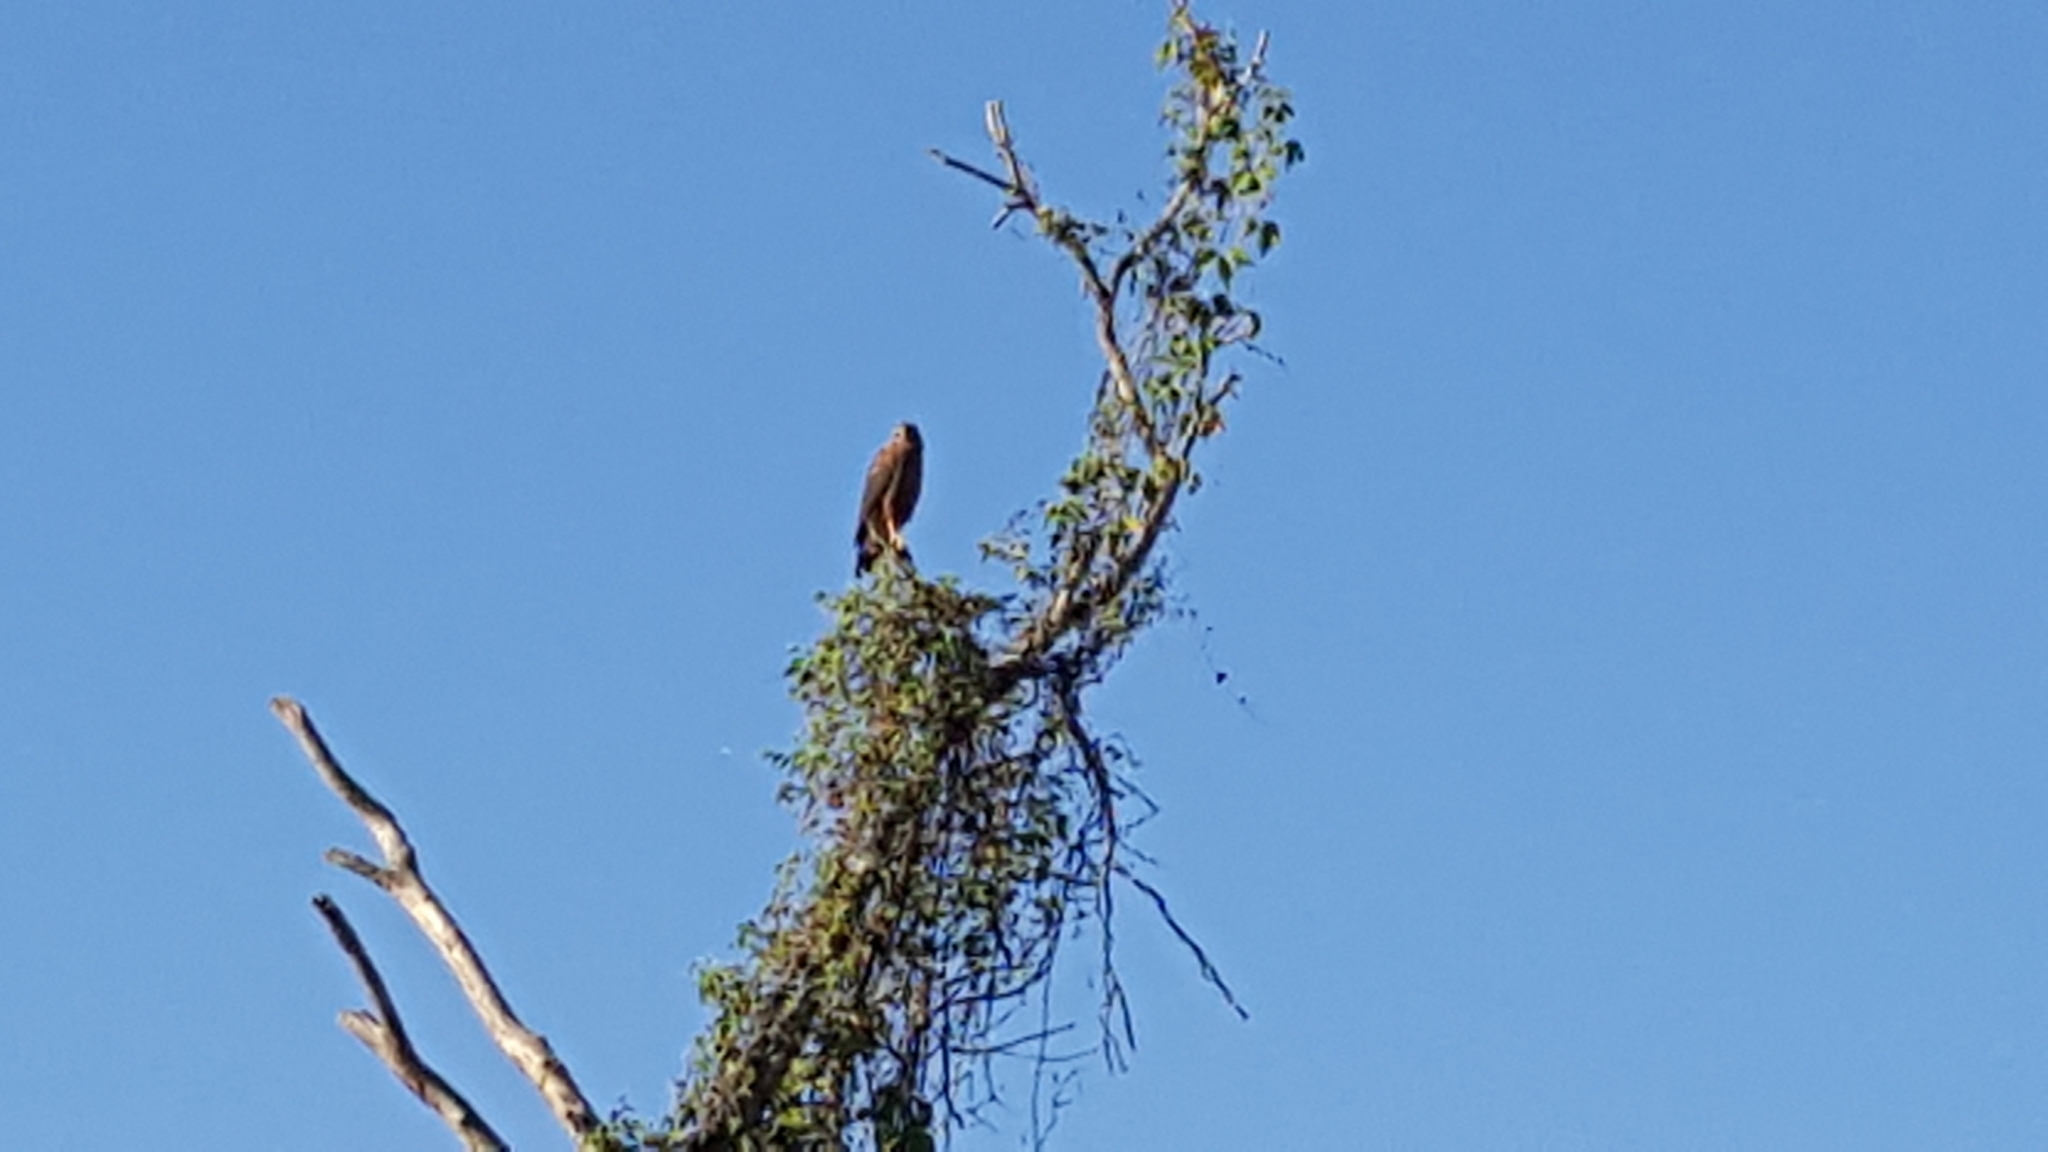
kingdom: Animalia
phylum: Chordata
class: Aves
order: Accipitriformes
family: Accipitridae
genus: Buteogallus
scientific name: Buteogallus meridionalis
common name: Savanna hawk
